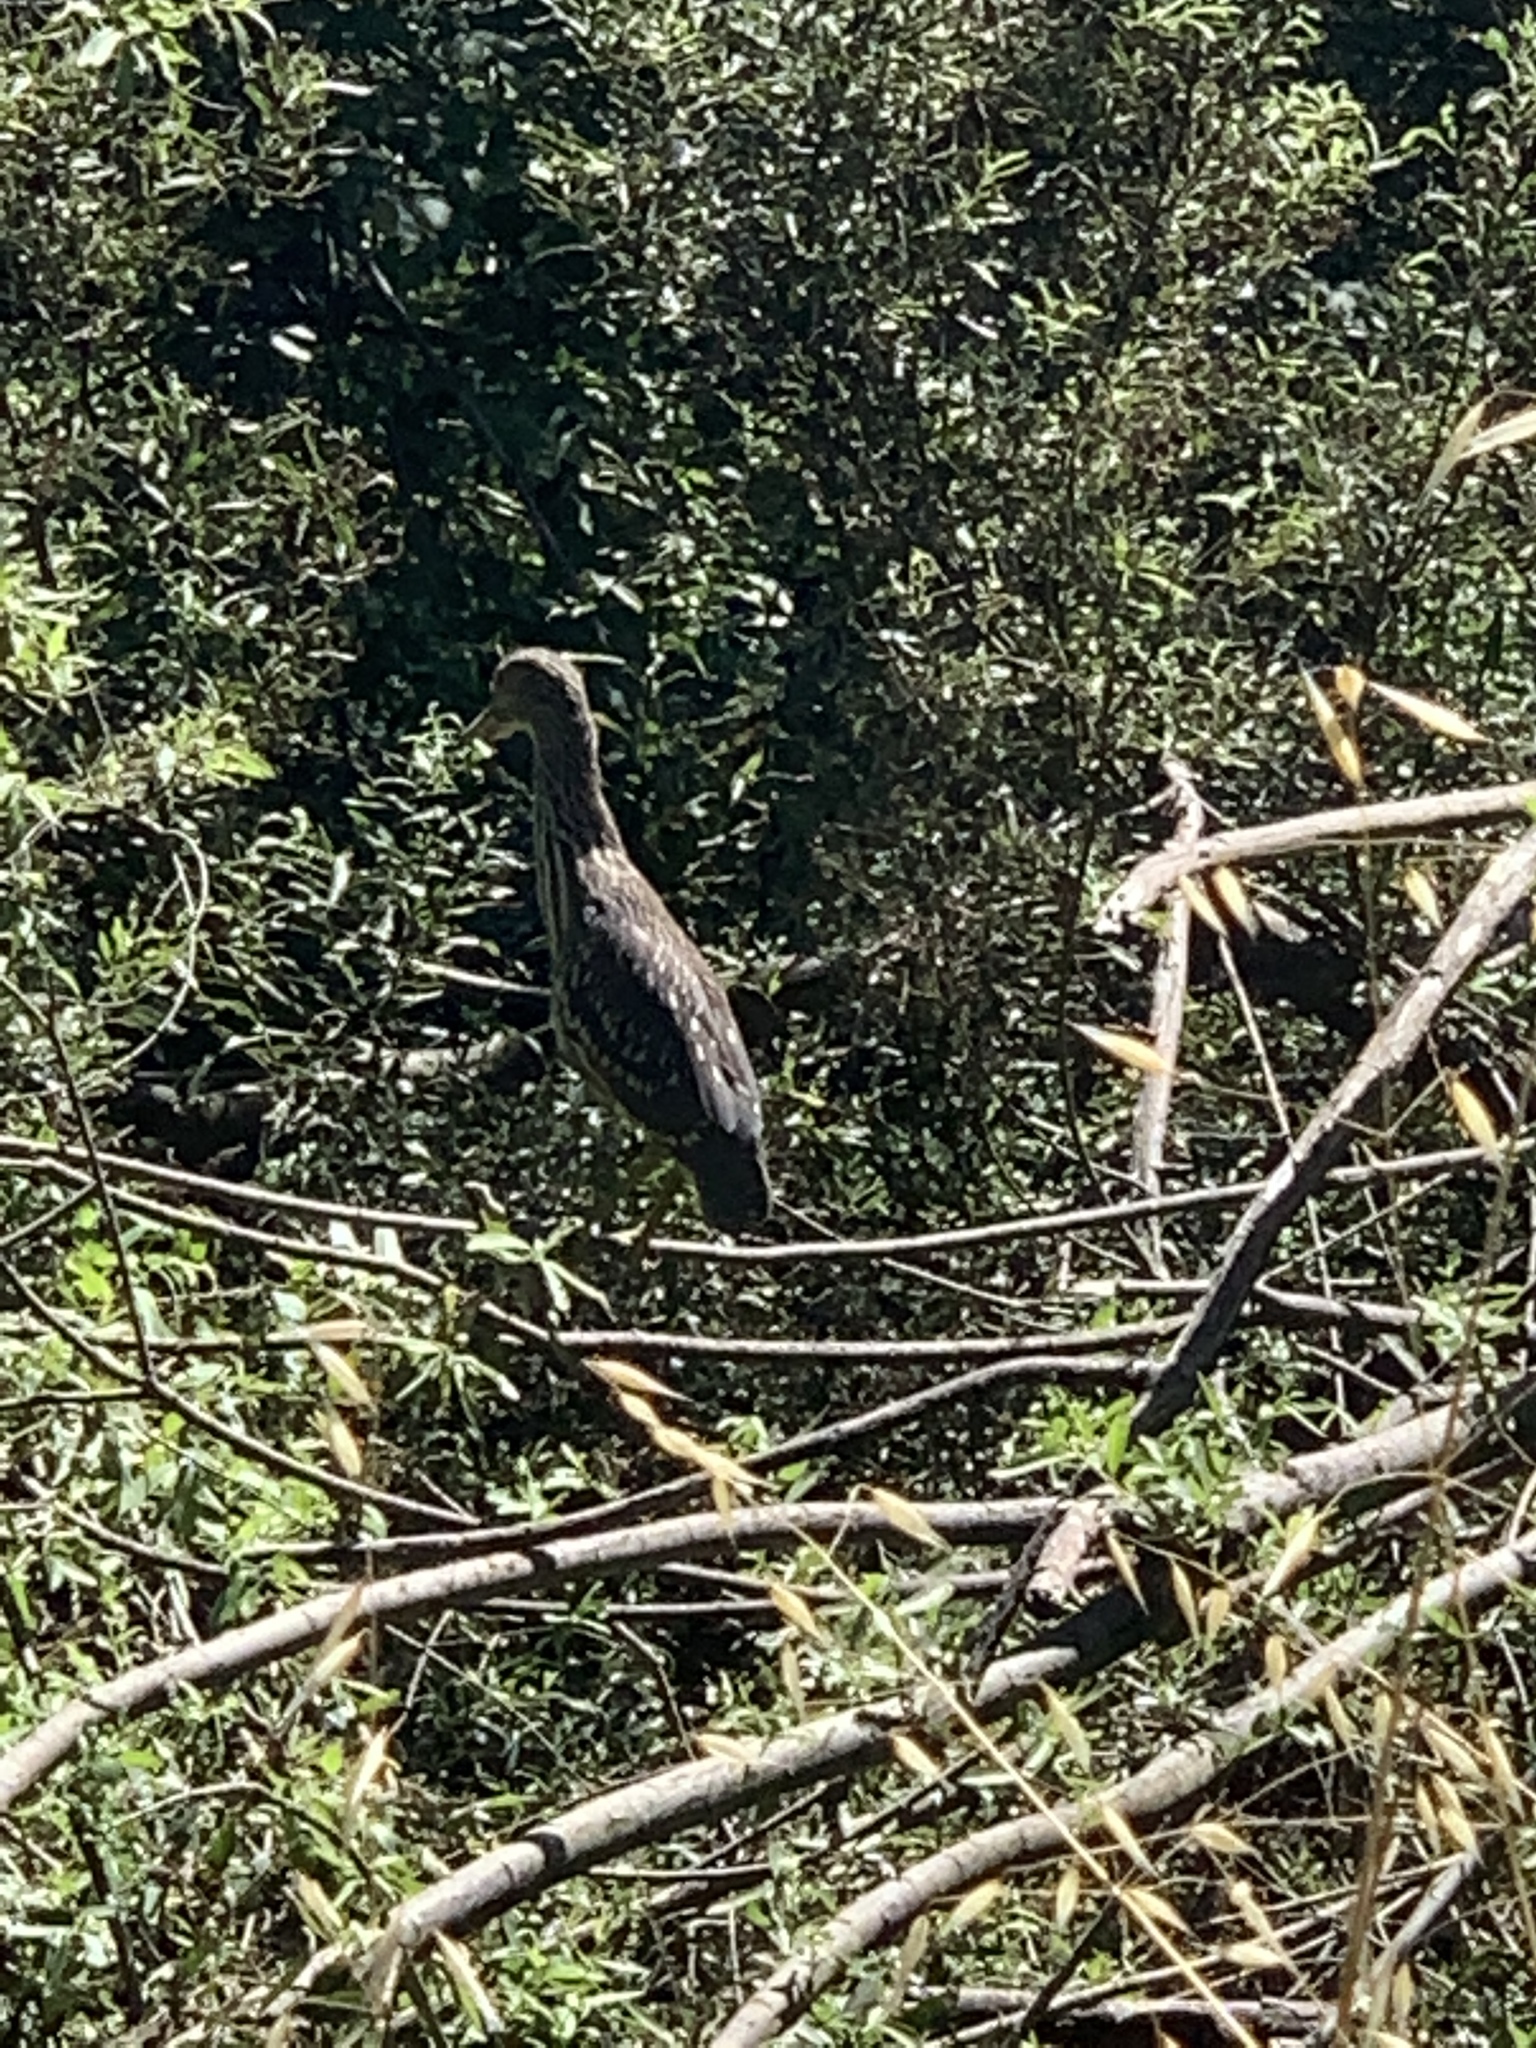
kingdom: Animalia
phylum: Chordata
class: Aves
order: Pelecaniformes
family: Ardeidae
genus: Nycticorax
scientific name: Nycticorax nycticorax
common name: Black-crowned night heron
